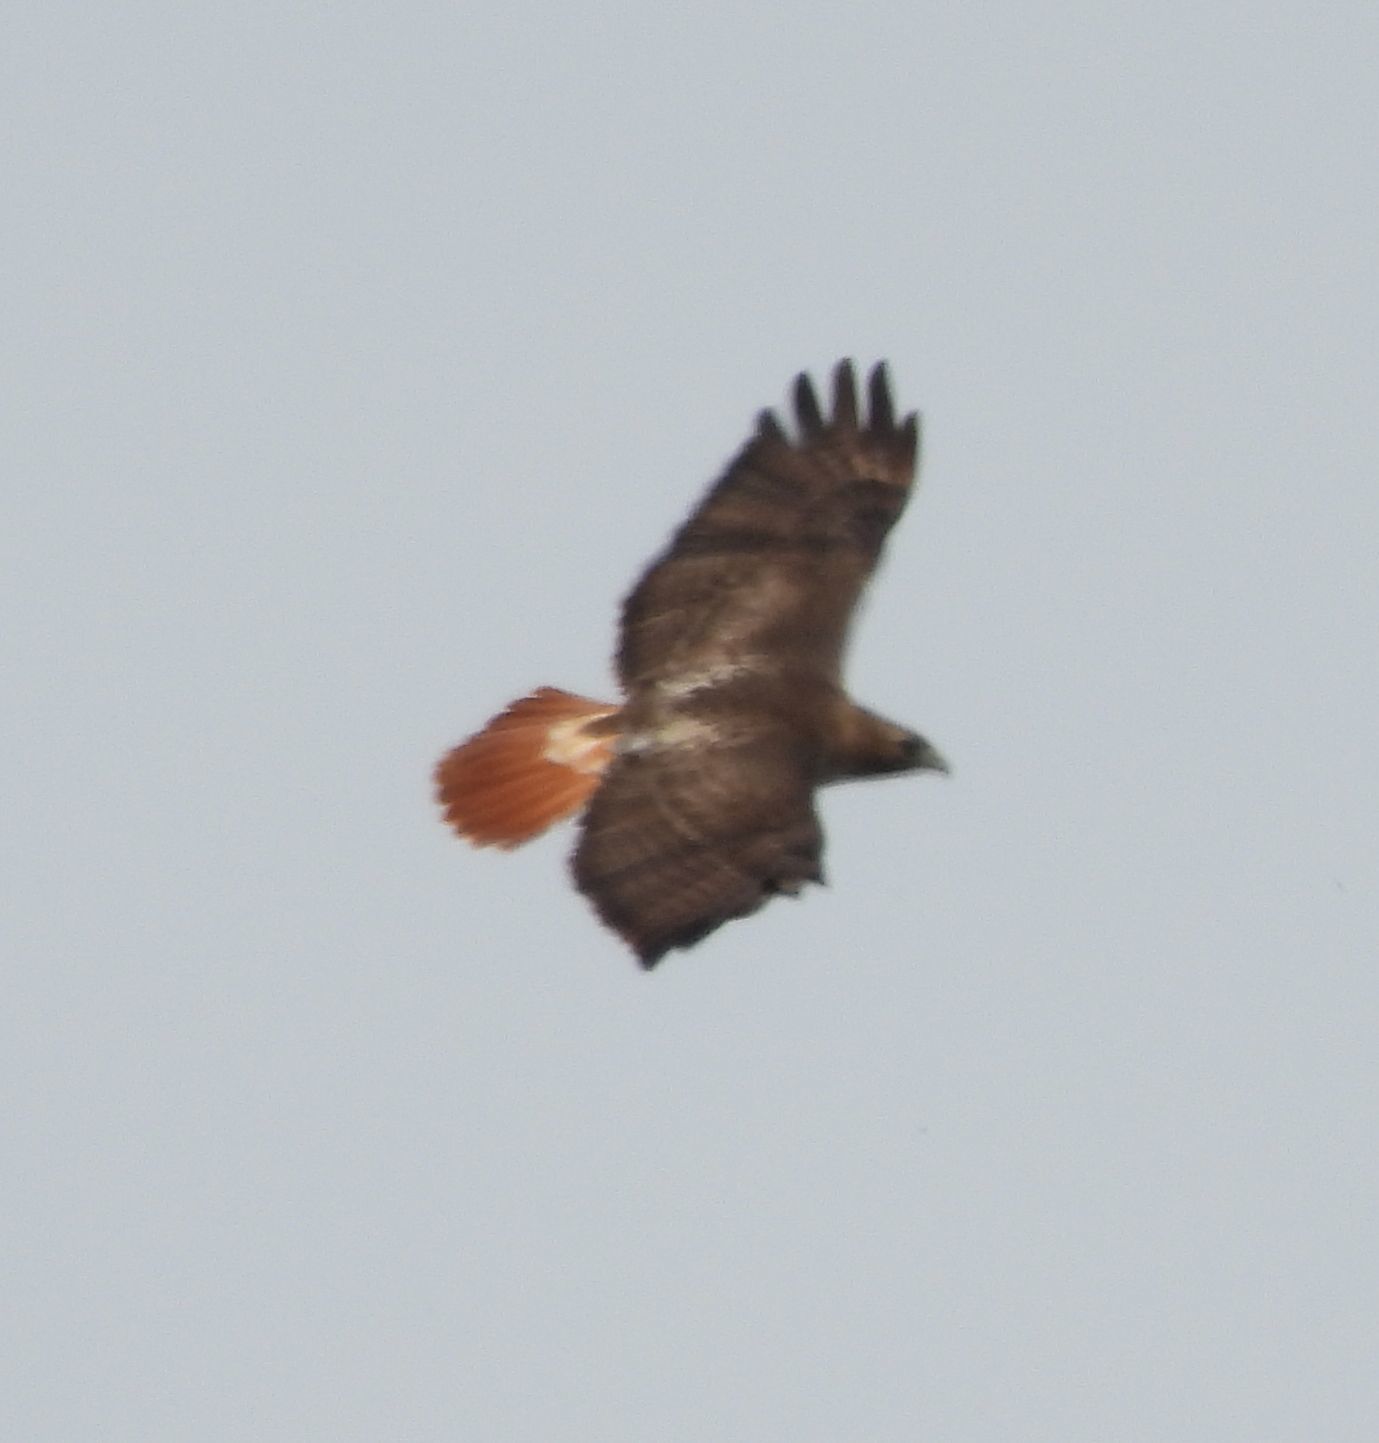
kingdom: Animalia
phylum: Chordata
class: Aves
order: Accipitriformes
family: Accipitridae
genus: Buteo
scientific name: Buteo jamaicensis
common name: Red-tailed hawk
